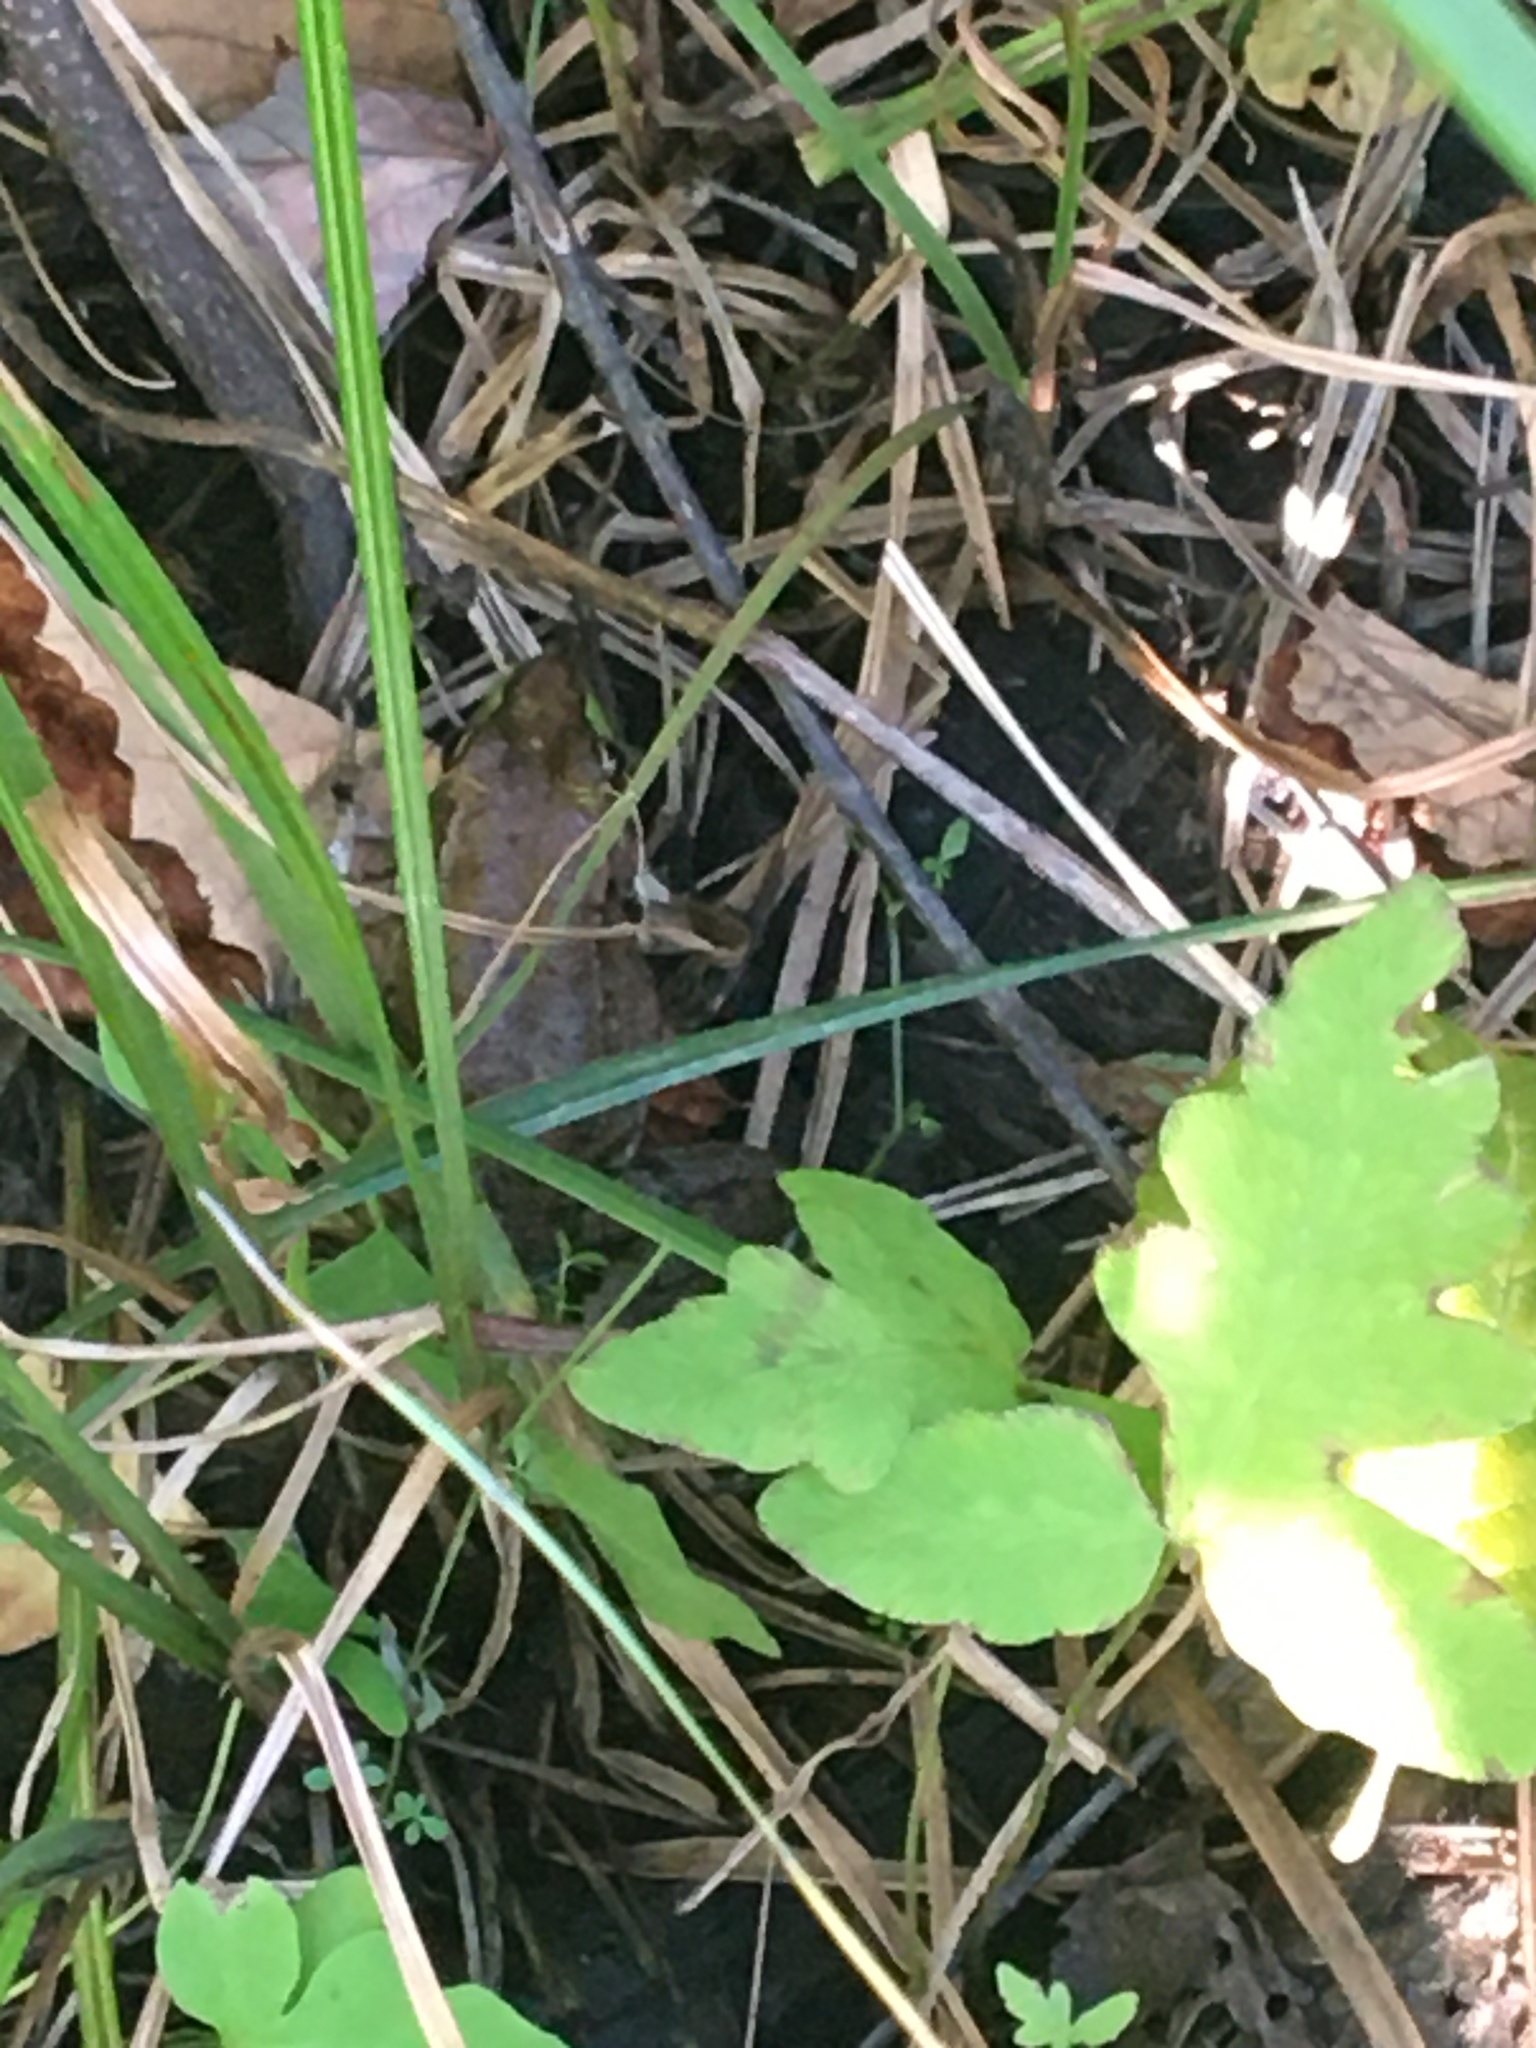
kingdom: Animalia
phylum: Chordata
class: Amphibia
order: Anura
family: Ranidae
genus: Lithobates
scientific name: Lithobates clamitans
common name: Green frog
